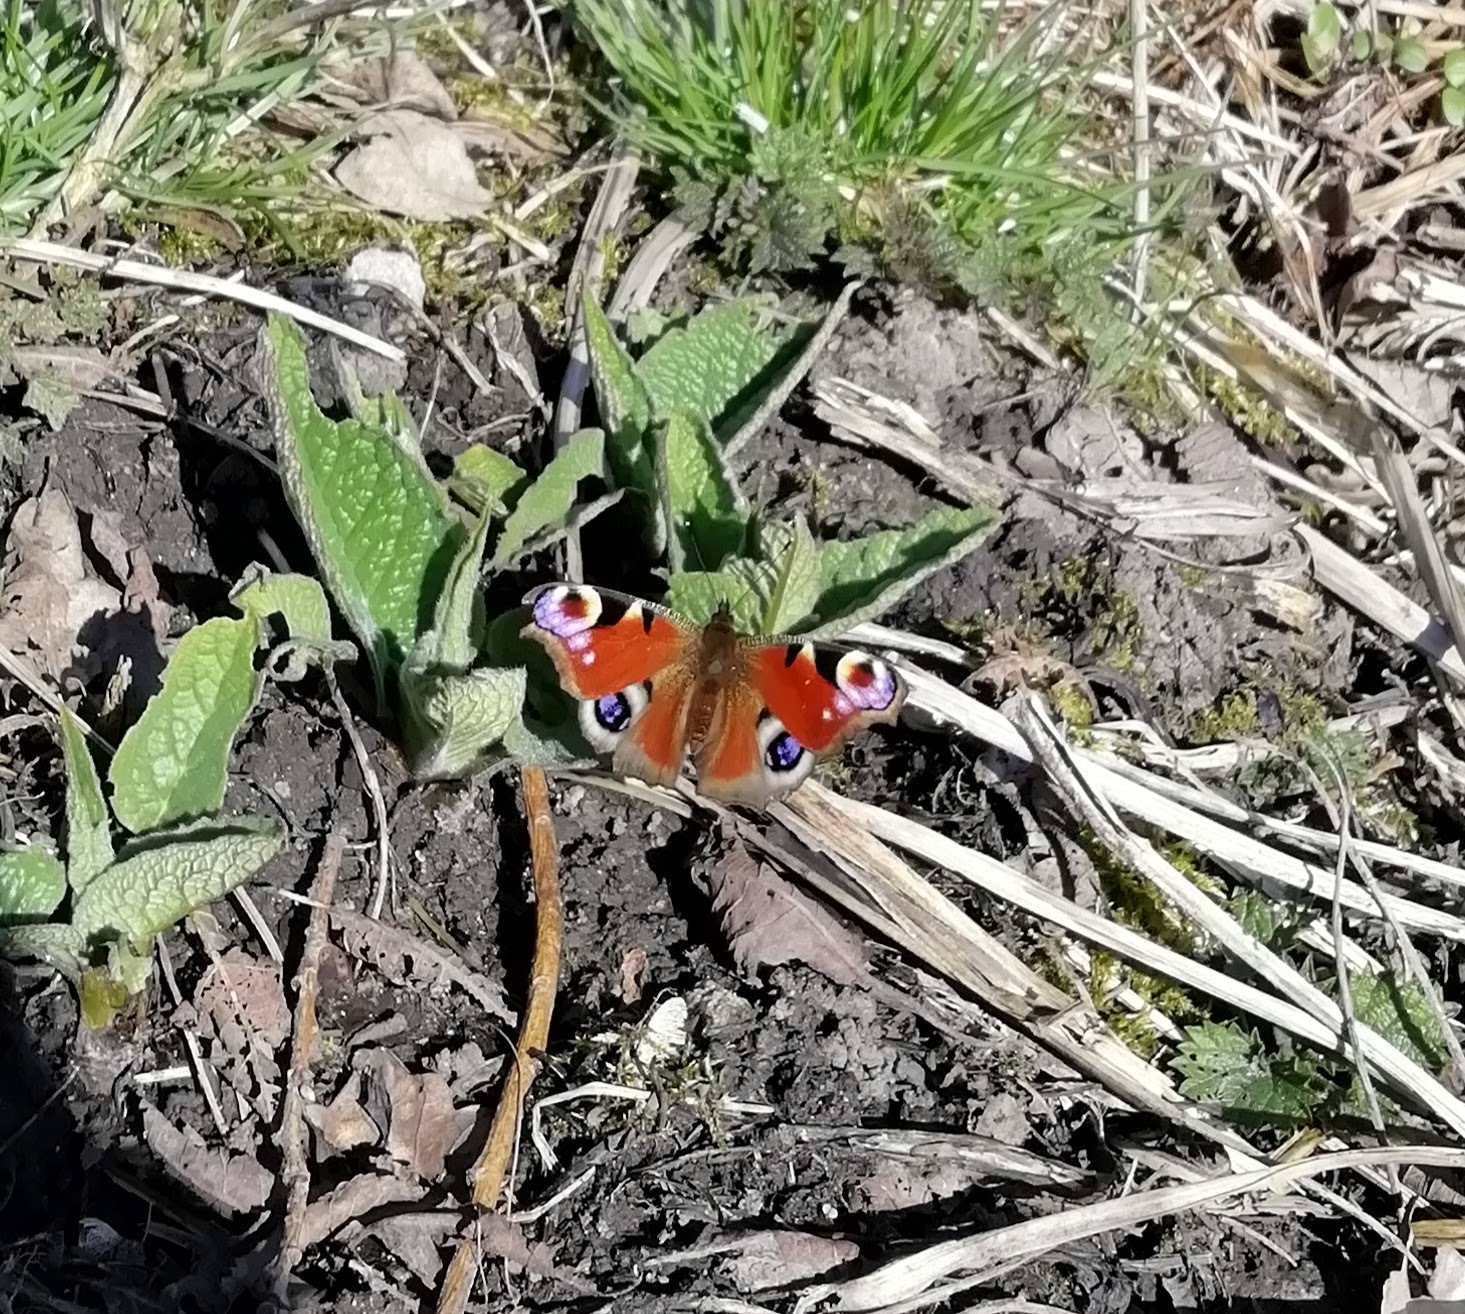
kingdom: Animalia
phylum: Arthropoda
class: Insecta
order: Lepidoptera
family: Nymphalidae
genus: Aglais
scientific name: Aglais io
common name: Peacock
